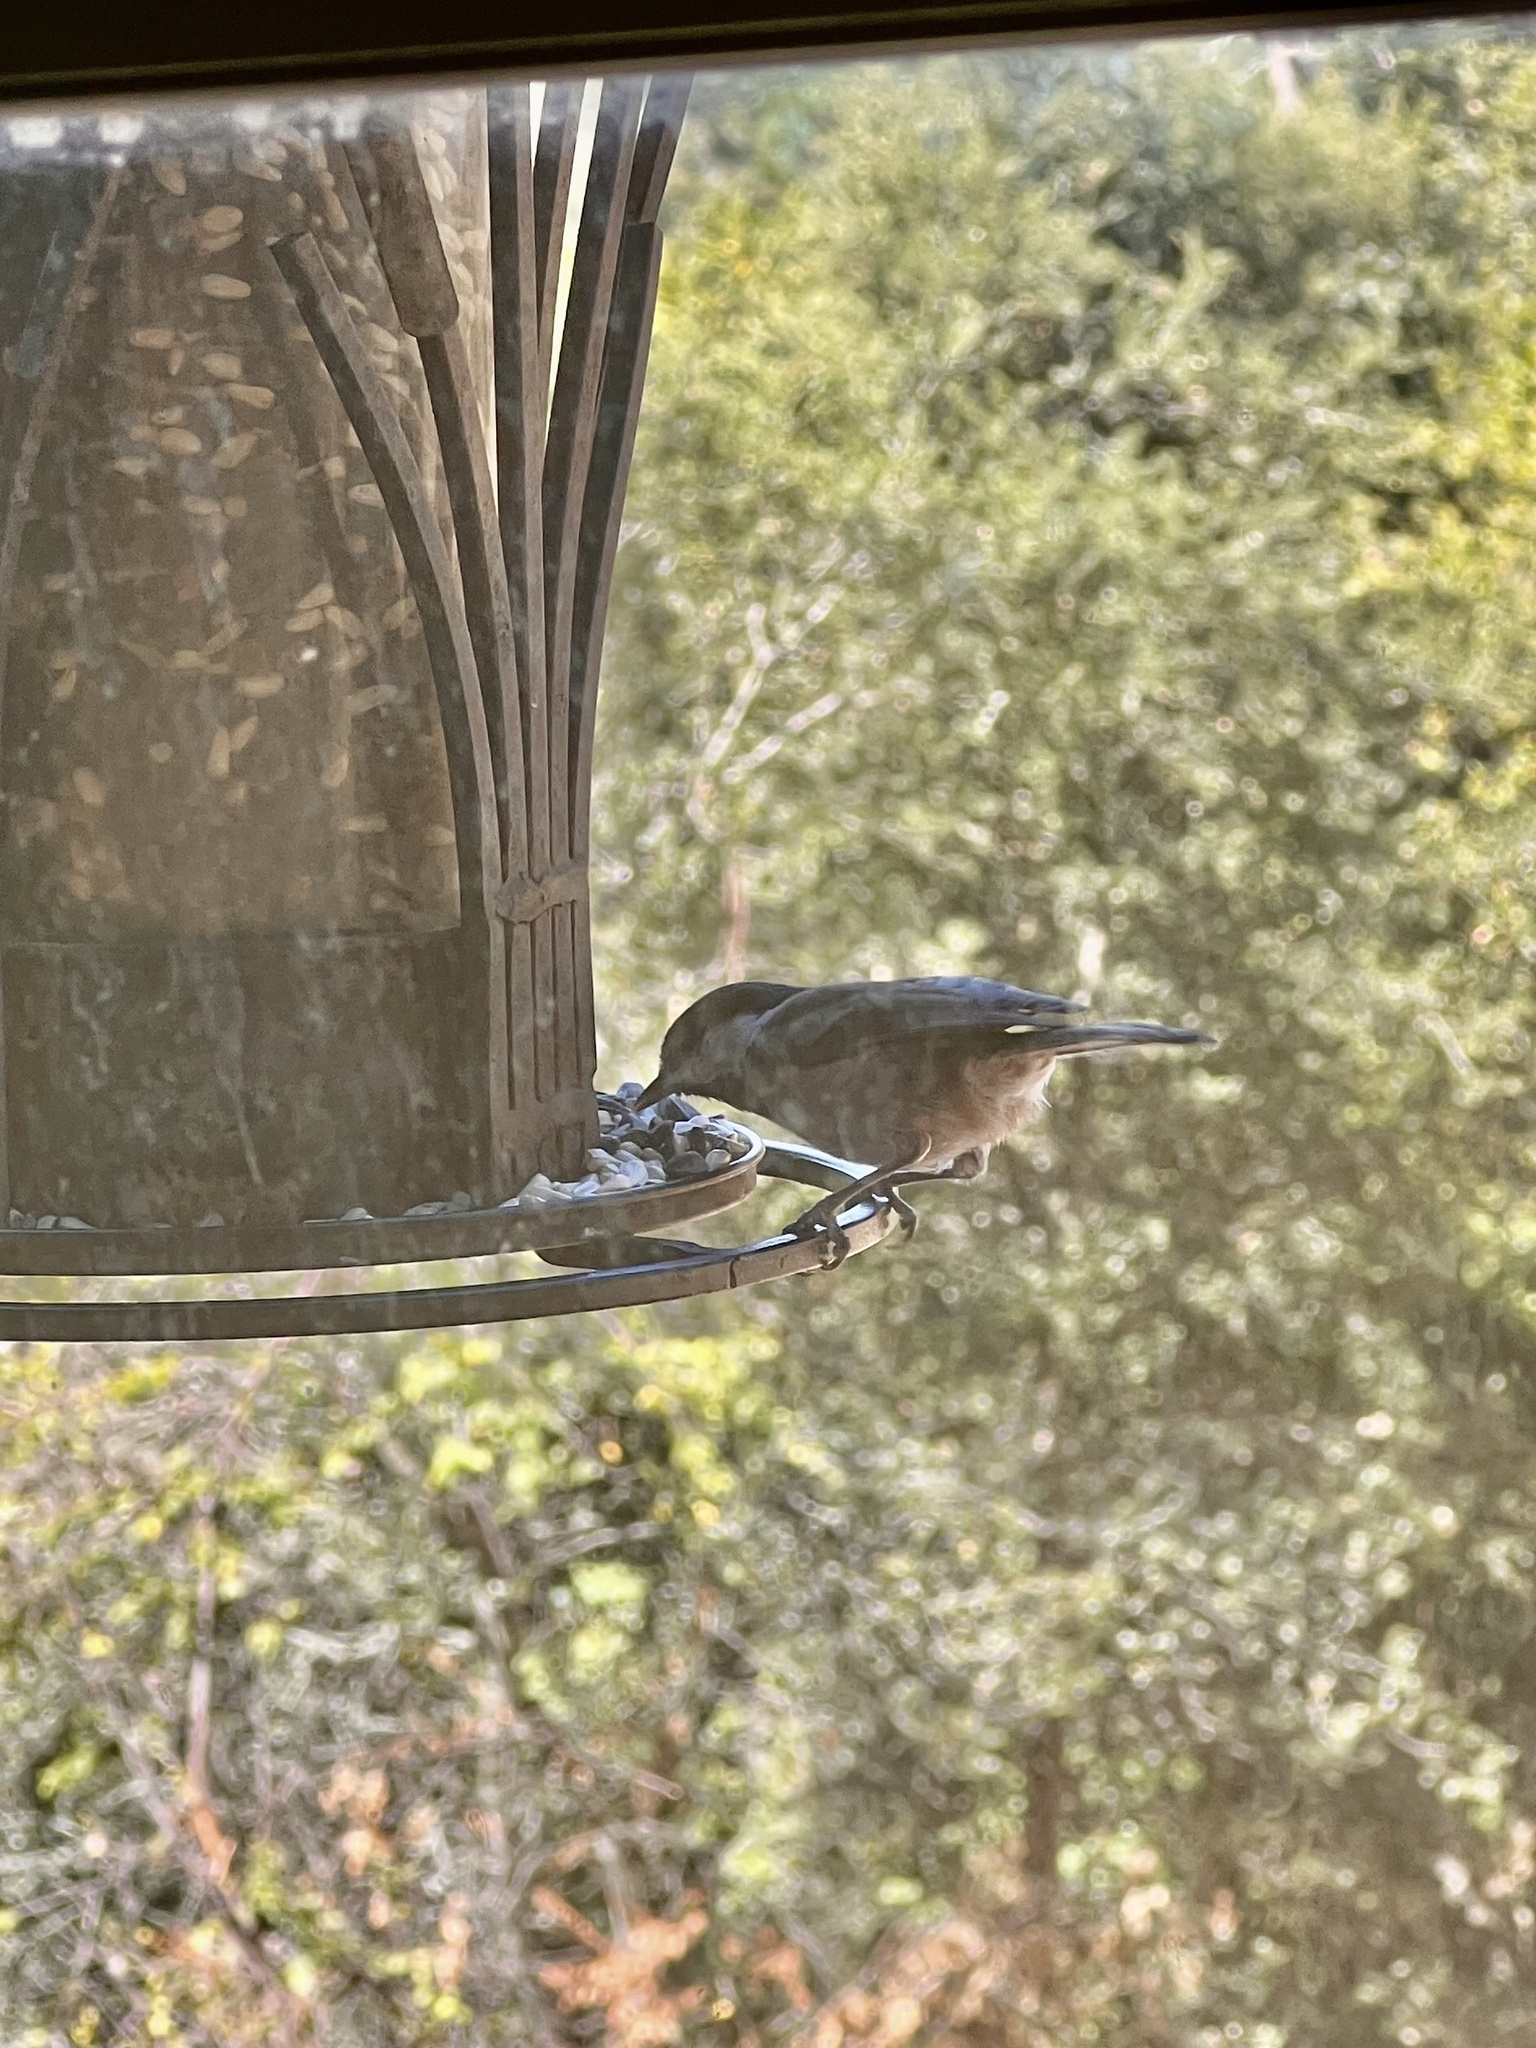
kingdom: Animalia
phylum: Chordata
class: Aves
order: Passeriformes
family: Paridae
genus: Poecile
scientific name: Poecile rufescens
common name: Chestnut-backed chickadee
